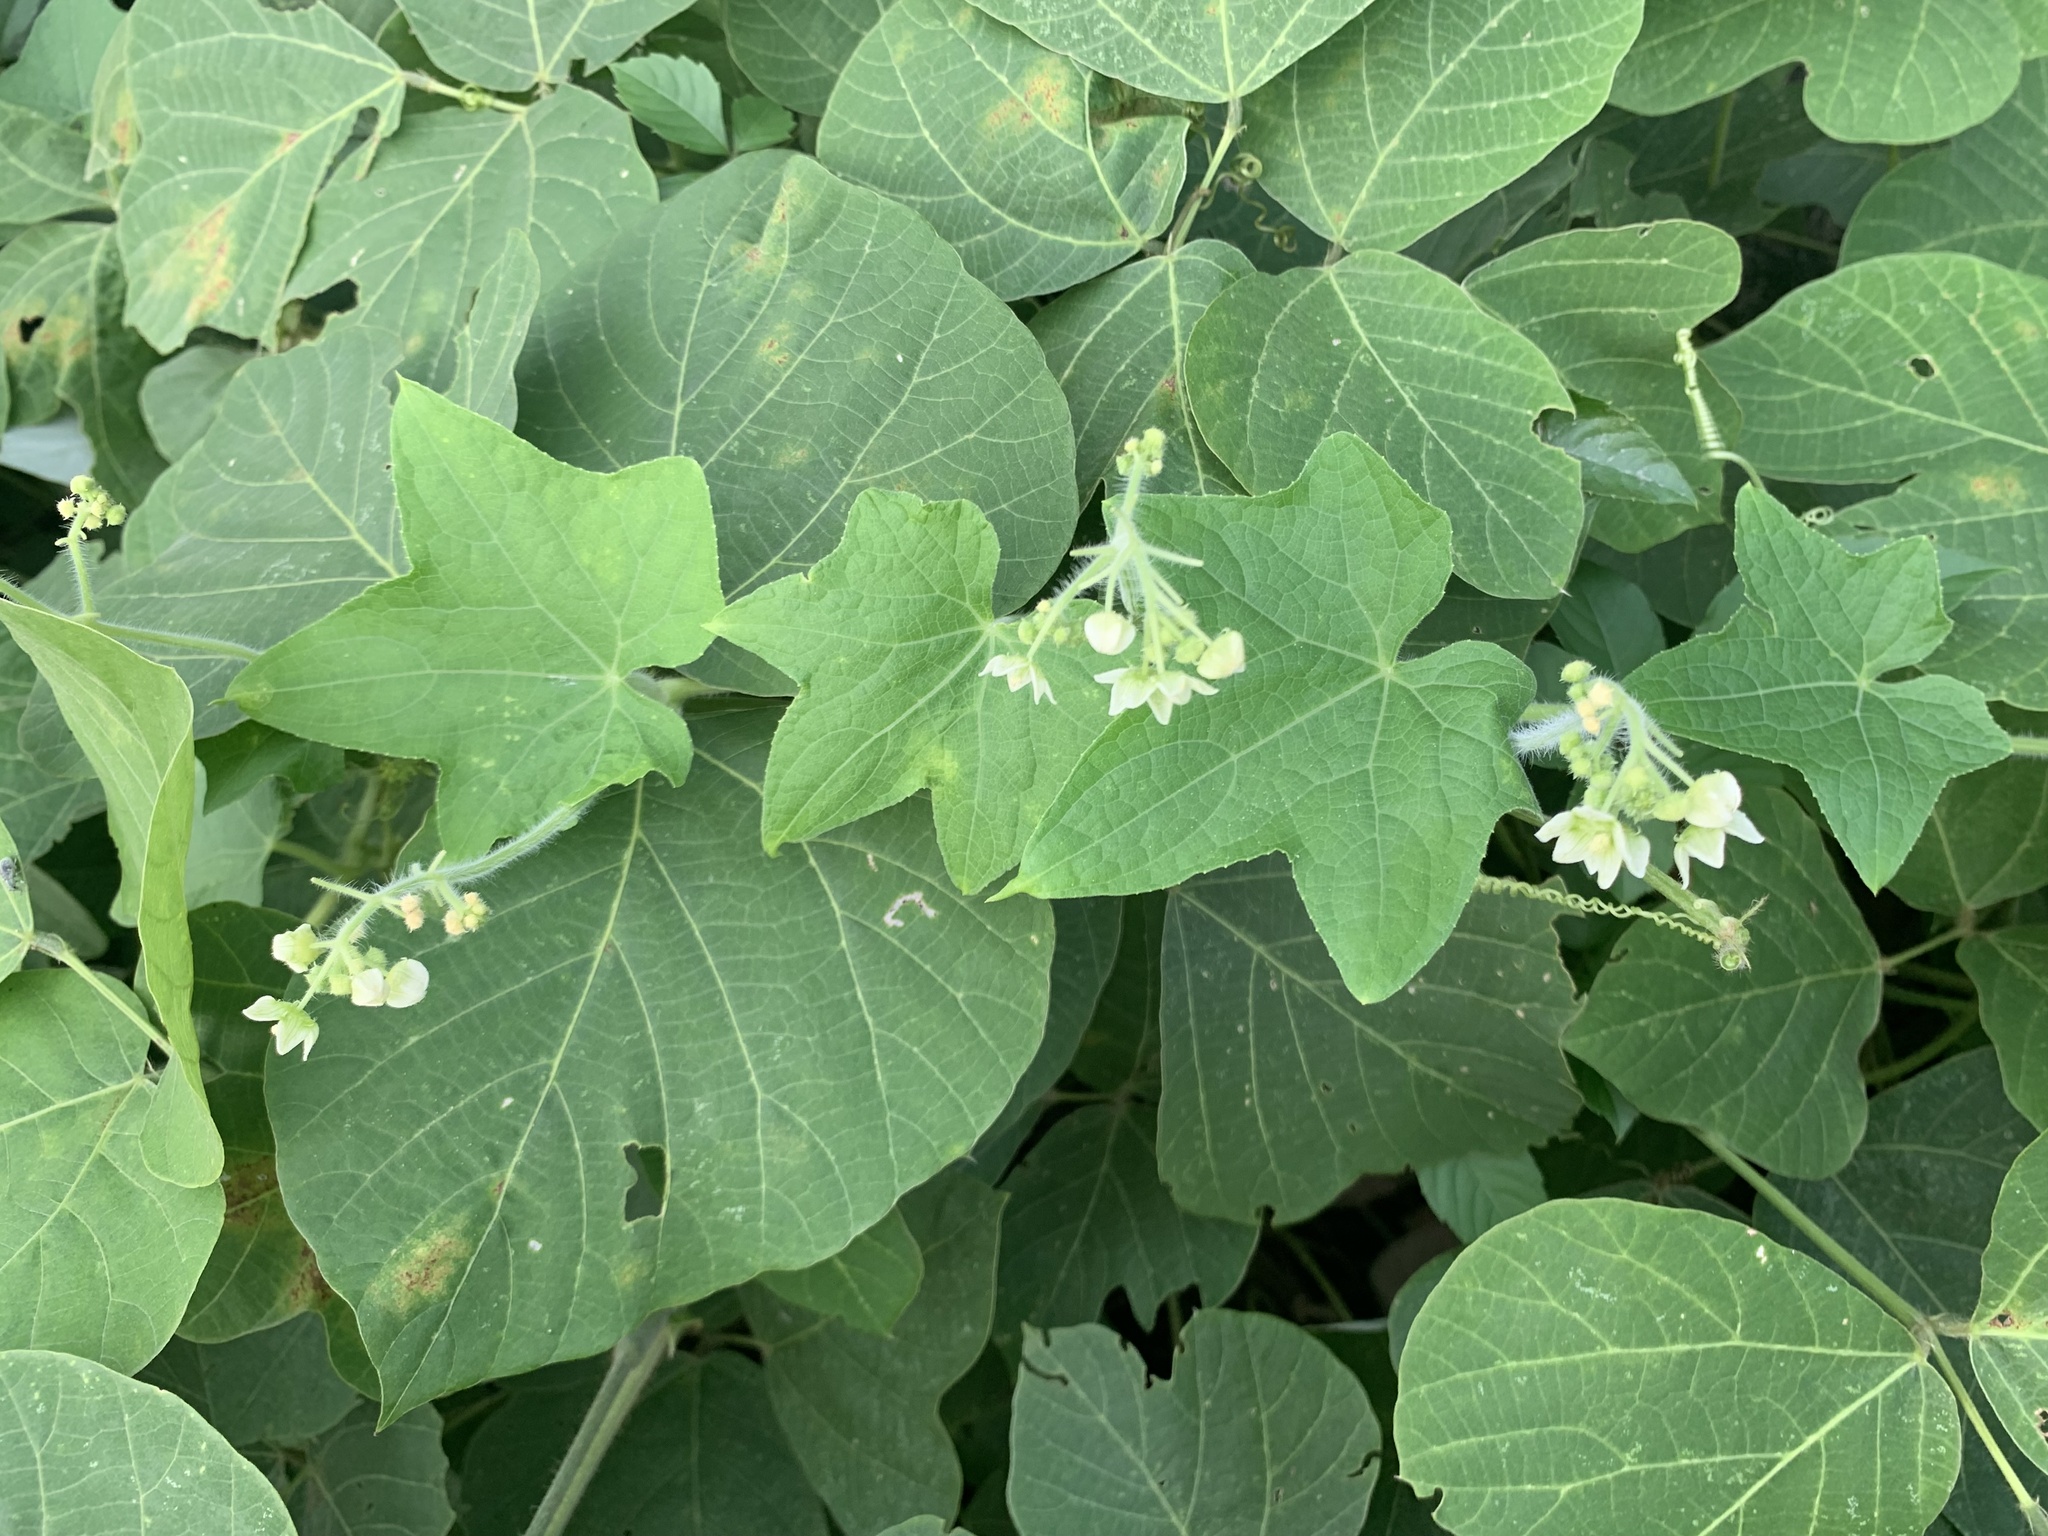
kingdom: Plantae
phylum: Tracheophyta
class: Magnoliopsida
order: Cucurbitales
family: Cucurbitaceae
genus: Sicyos
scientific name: Sicyos angulatus
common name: Angled burr cucumber
